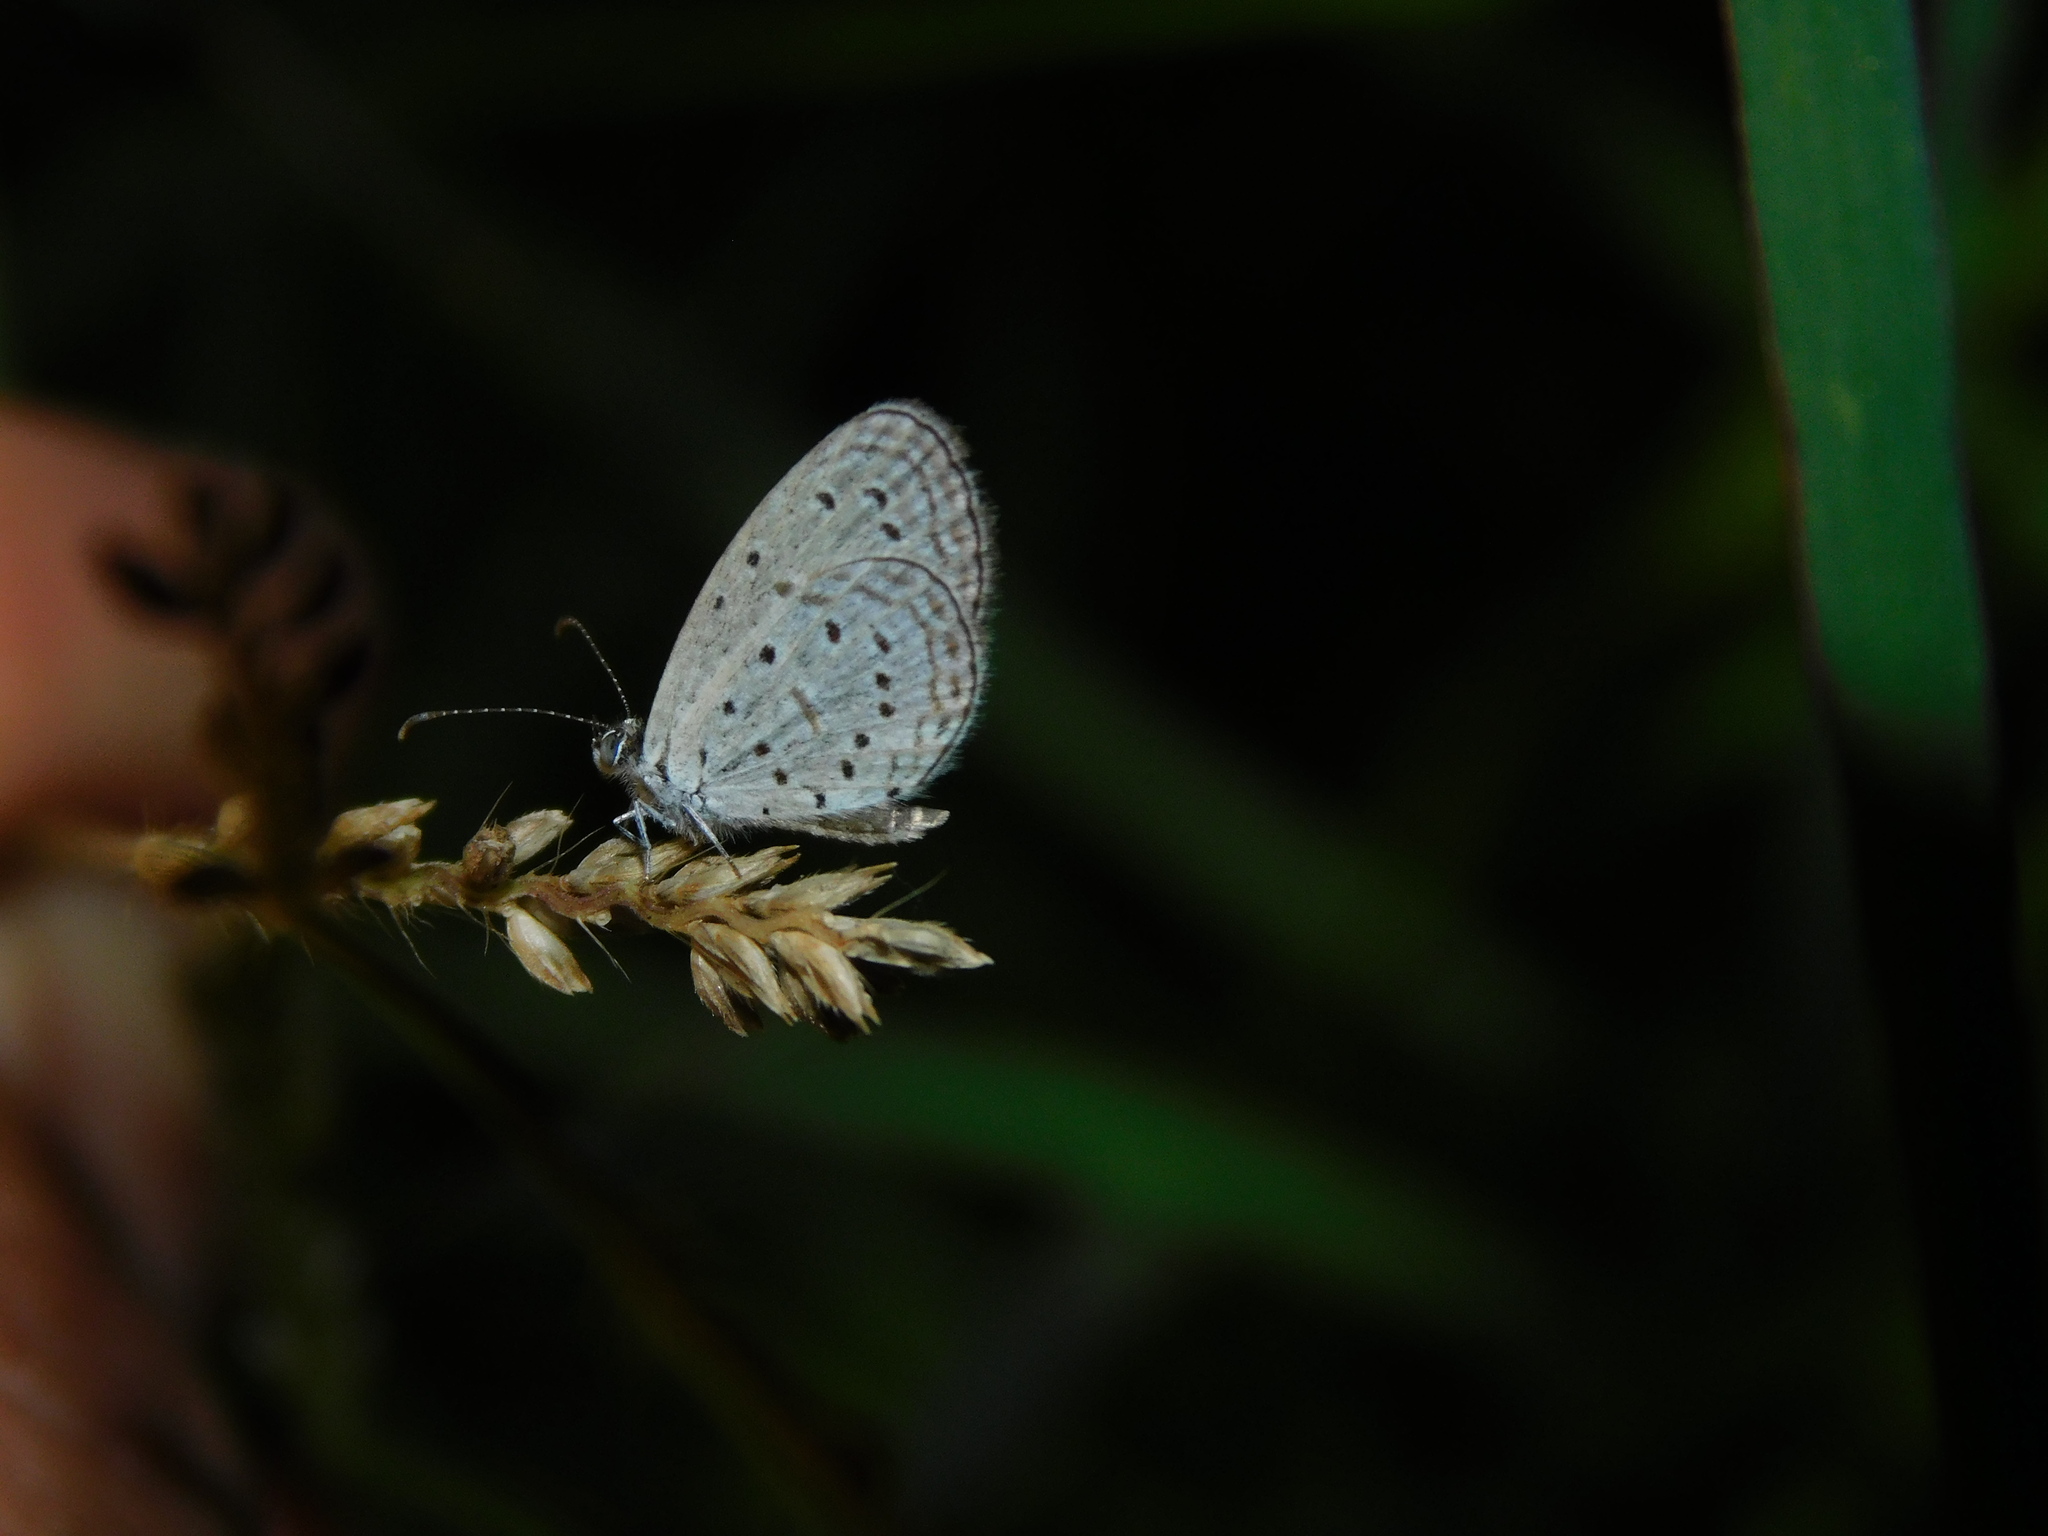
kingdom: Animalia
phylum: Arthropoda
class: Insecta
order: Lepidoptera
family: Lycaenidae
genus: Zizula
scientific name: Zizula hylax
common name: Gaika blue
